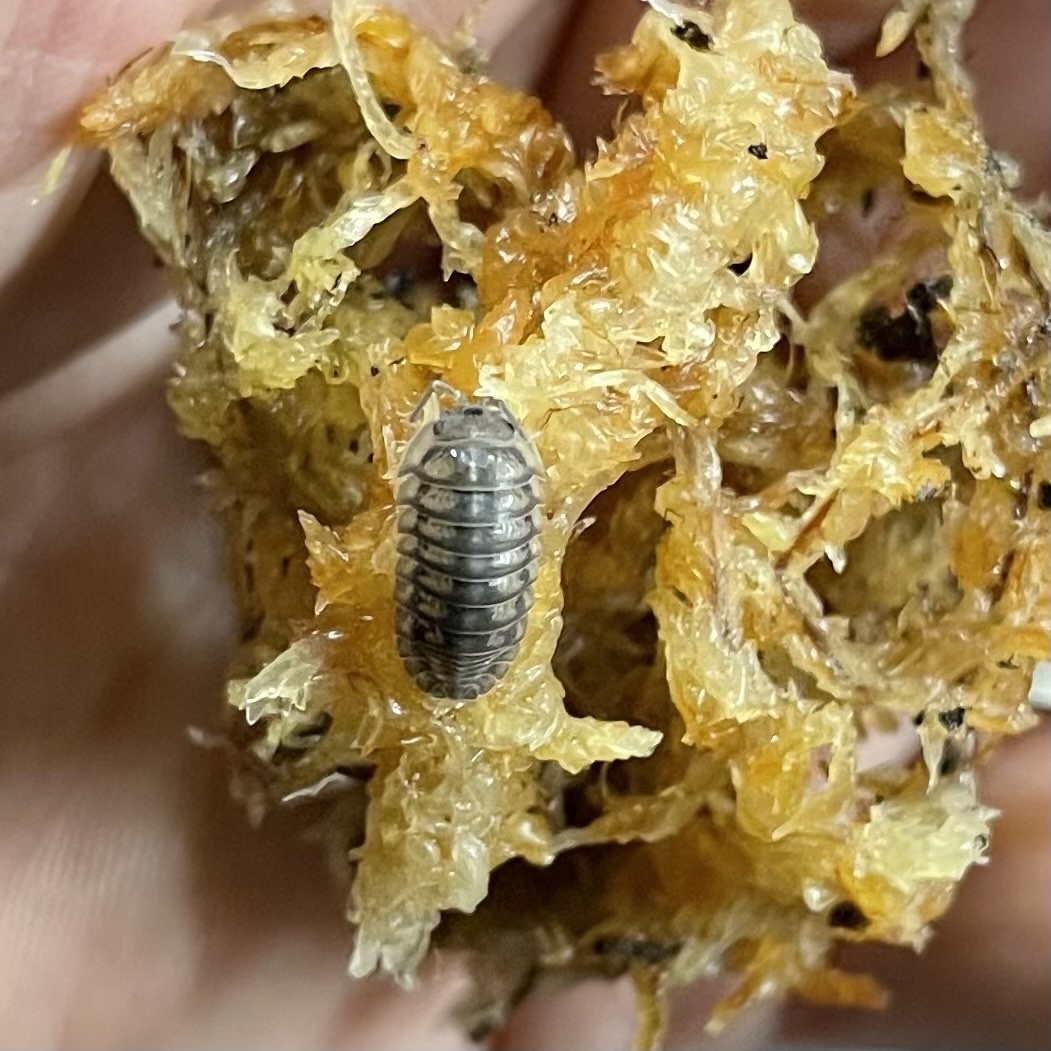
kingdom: Animalia
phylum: Arthropoda
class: Malacostraca
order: Isopoda
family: Armadillidiidae
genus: Armadillidium
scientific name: Armadillidium nasatum
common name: Isopod
